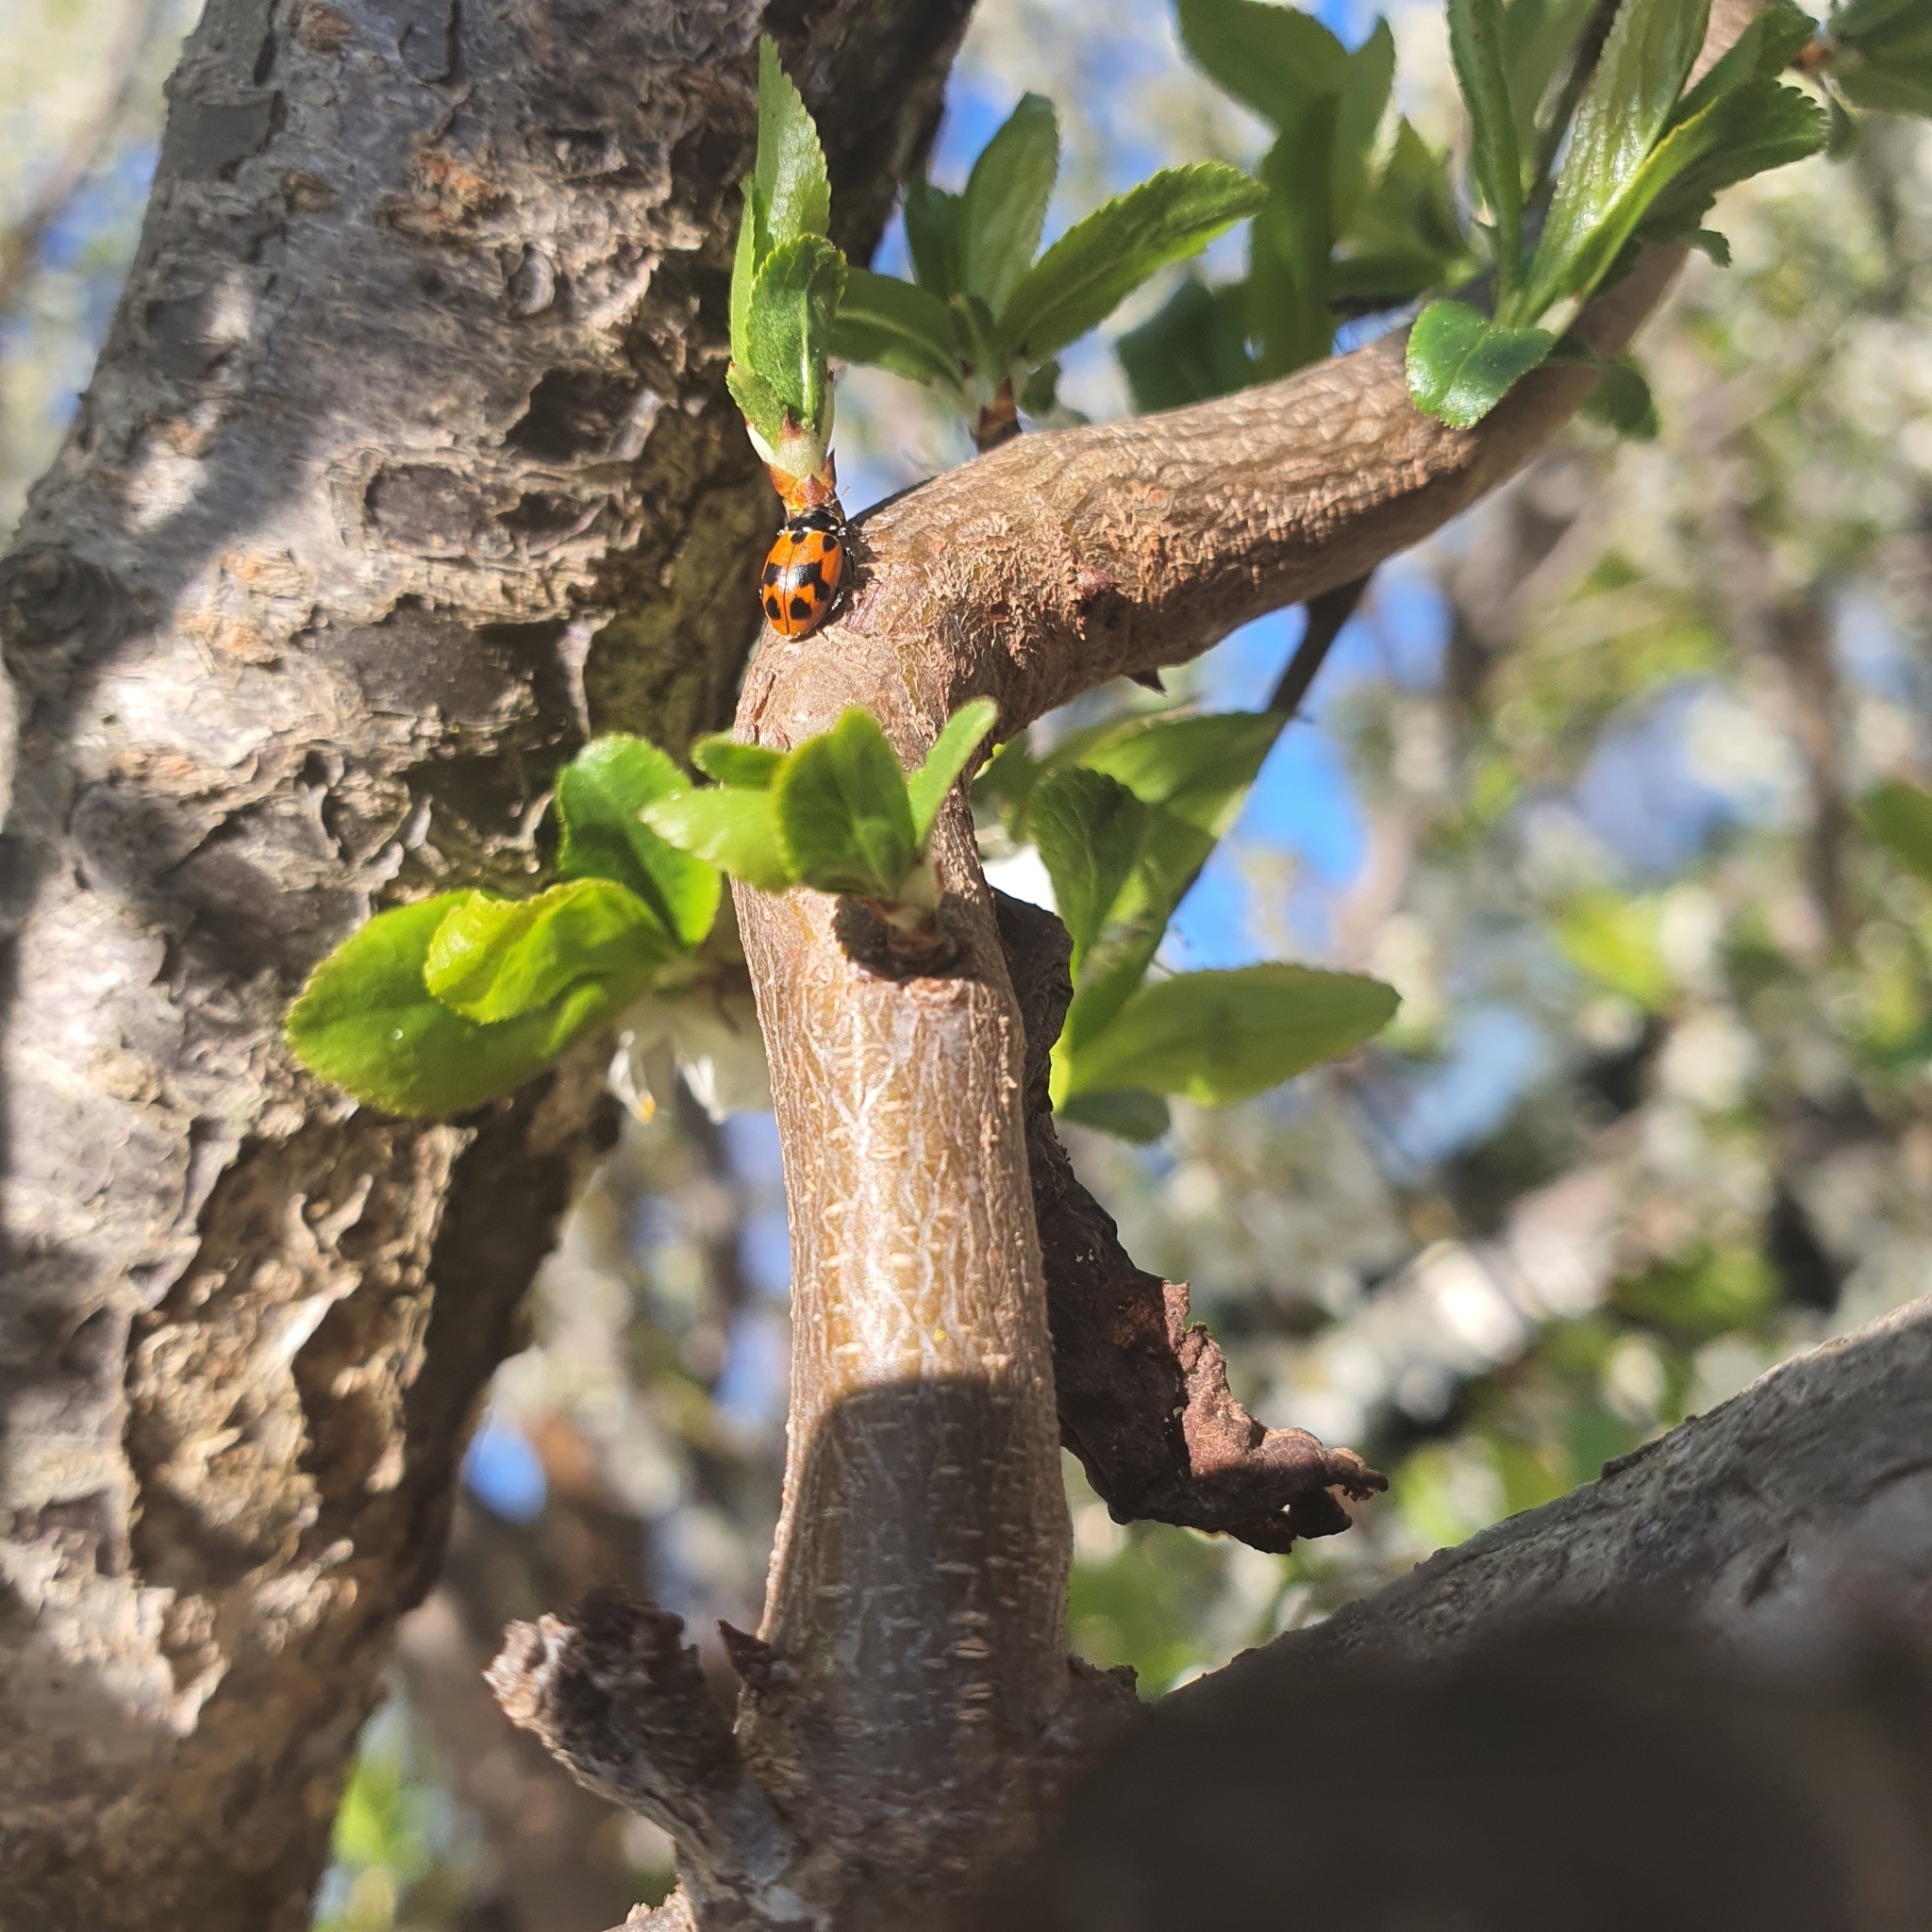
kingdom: Animalia
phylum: Arthropoda
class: Insecta
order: Coleoptera
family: Coccinellidae
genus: Hippodamia
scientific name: Hippodamia variegata
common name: Ladybird beetle
